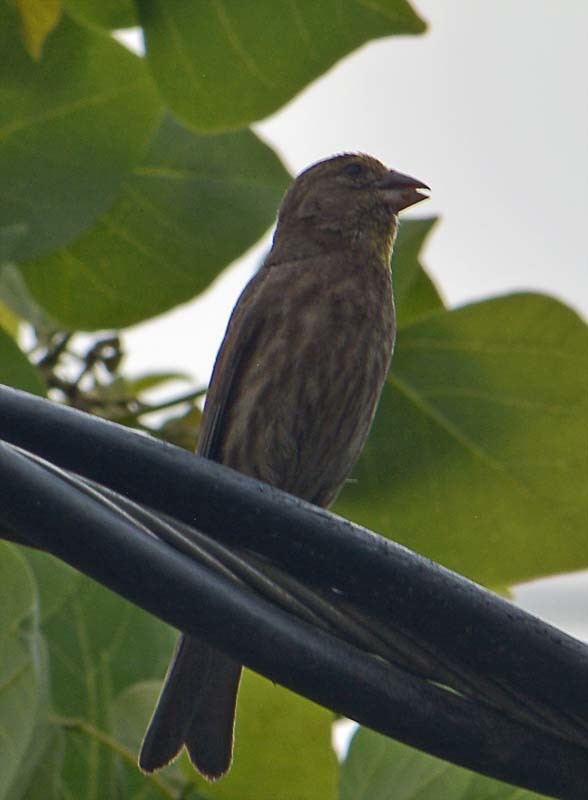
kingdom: Animalia
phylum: Chordata
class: Aves
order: Passeriformes
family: Fringillidae
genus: Haemorhous
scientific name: Haemorhous mexicanus
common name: House finch
